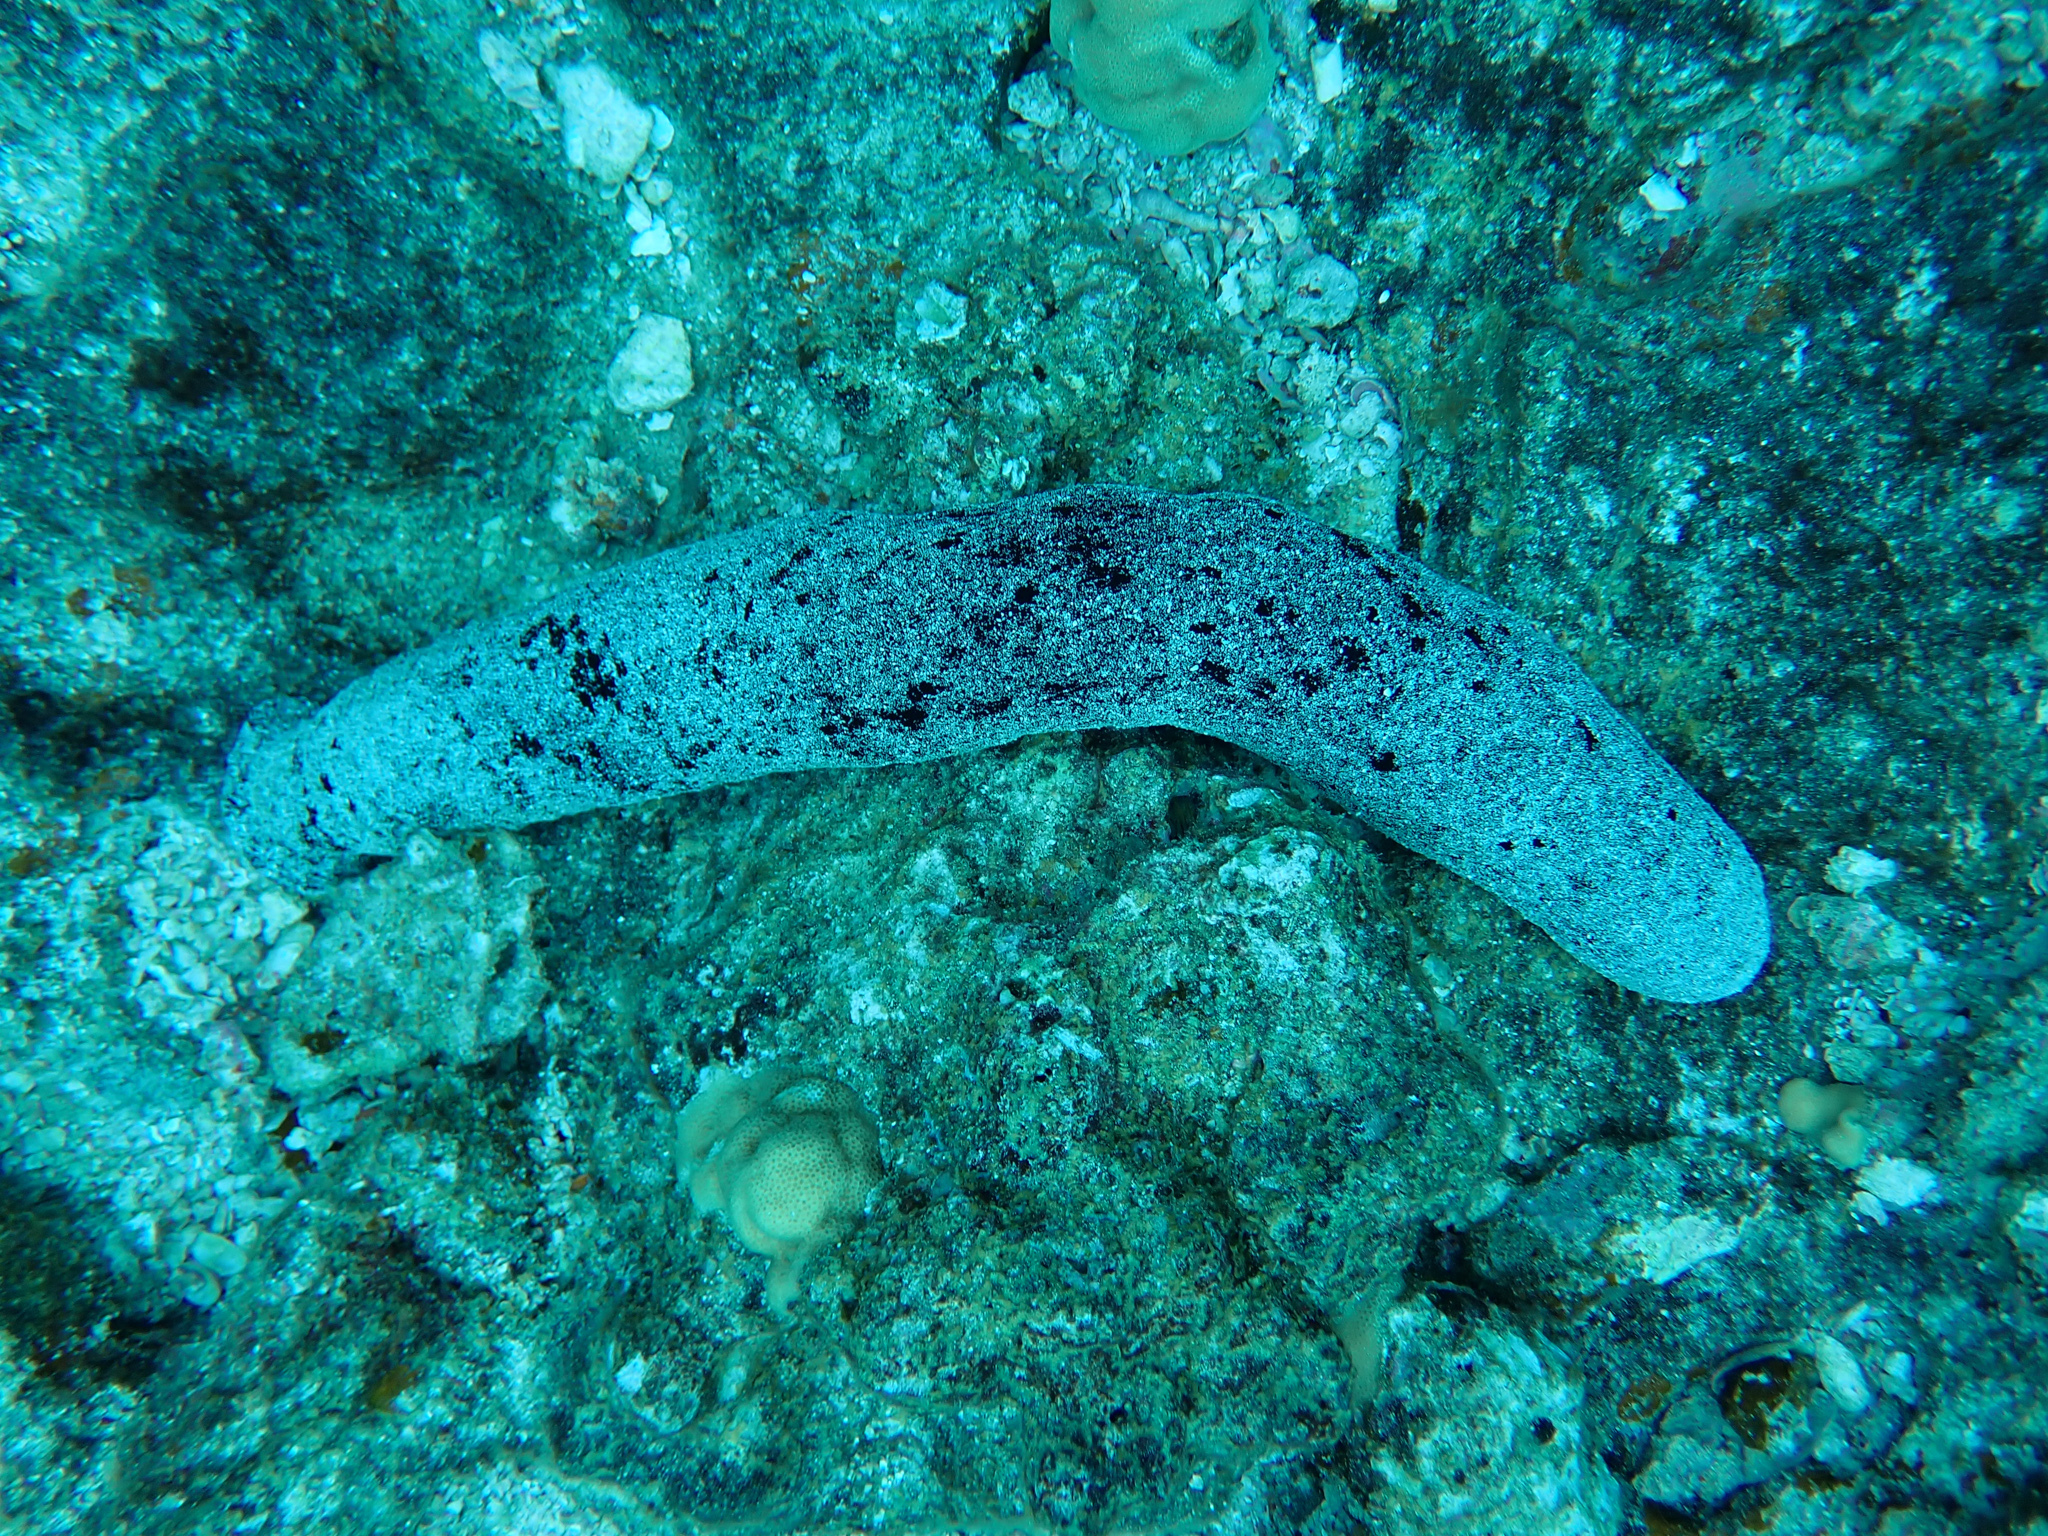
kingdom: Animalia
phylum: Echinodermata
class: Holothuroidea
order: Holothuriida
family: Holothuriidae
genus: Holothuria
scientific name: Holothuria atra
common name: Lollyfish
